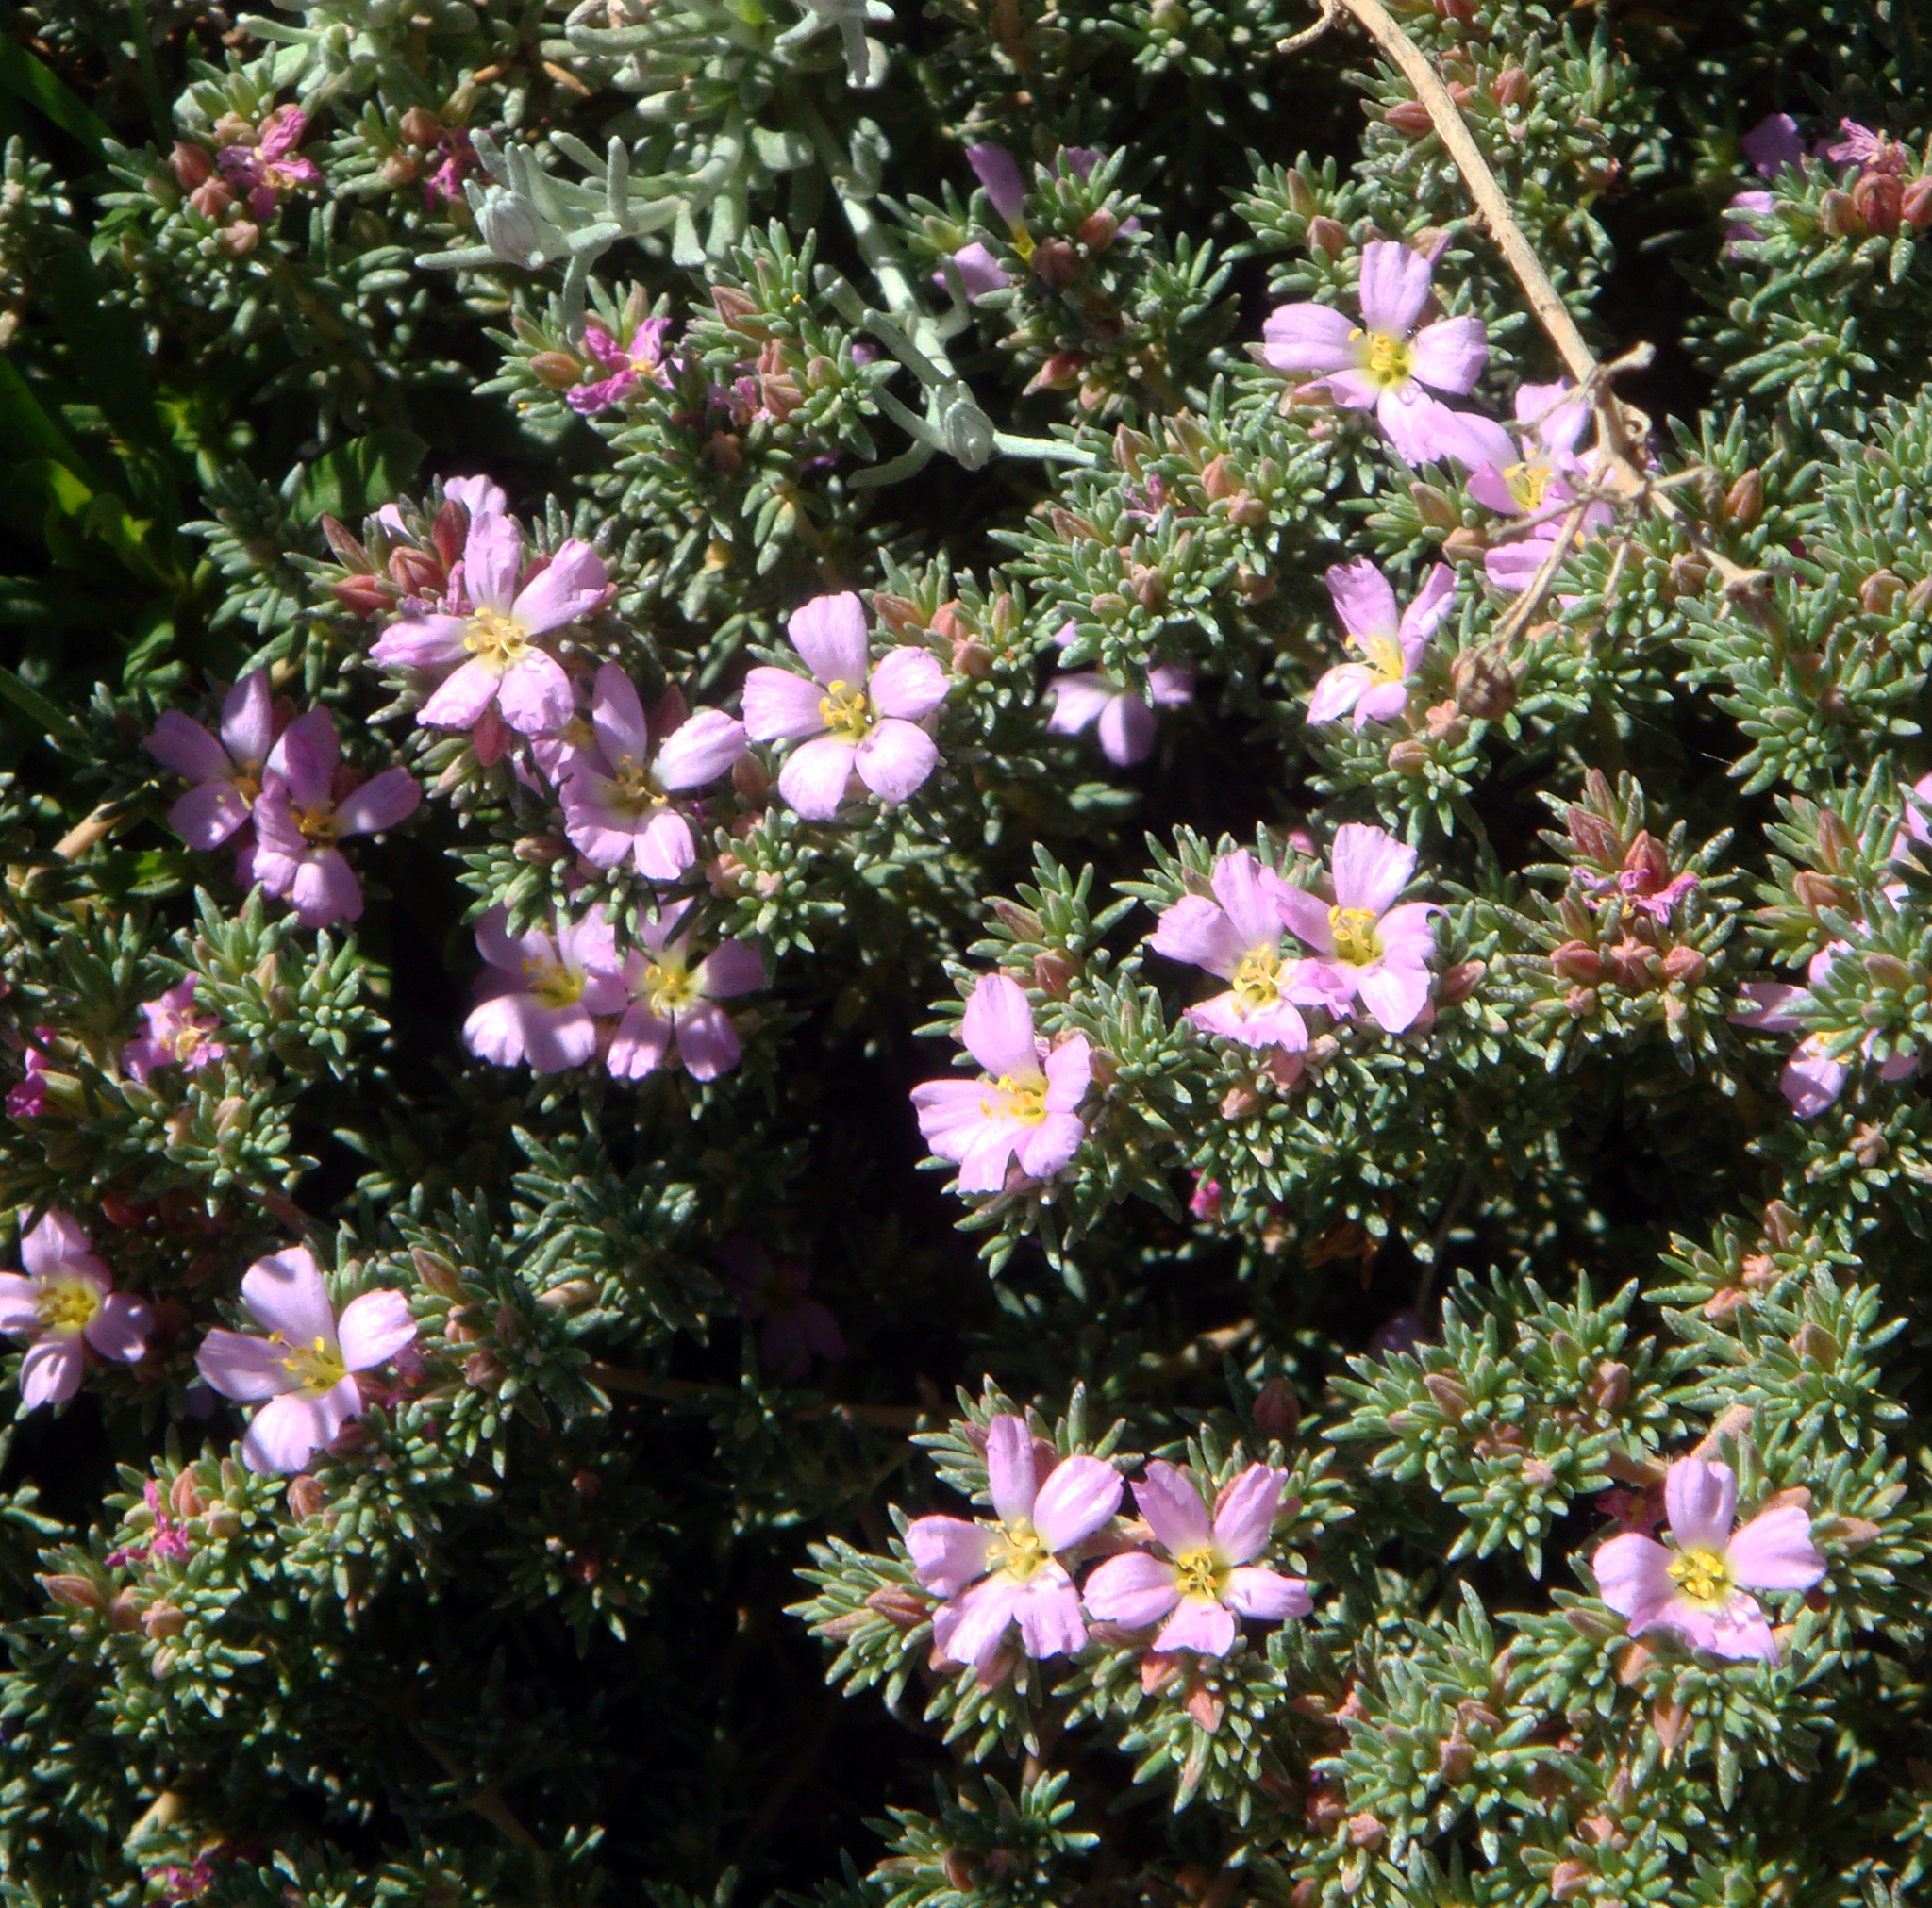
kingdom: Plantae
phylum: Tracheophyta
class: Magnoliopsida
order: Caryophyllales
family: Frankeniaceae
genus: Frankenia
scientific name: Frankenia laevis
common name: Sea-heath
